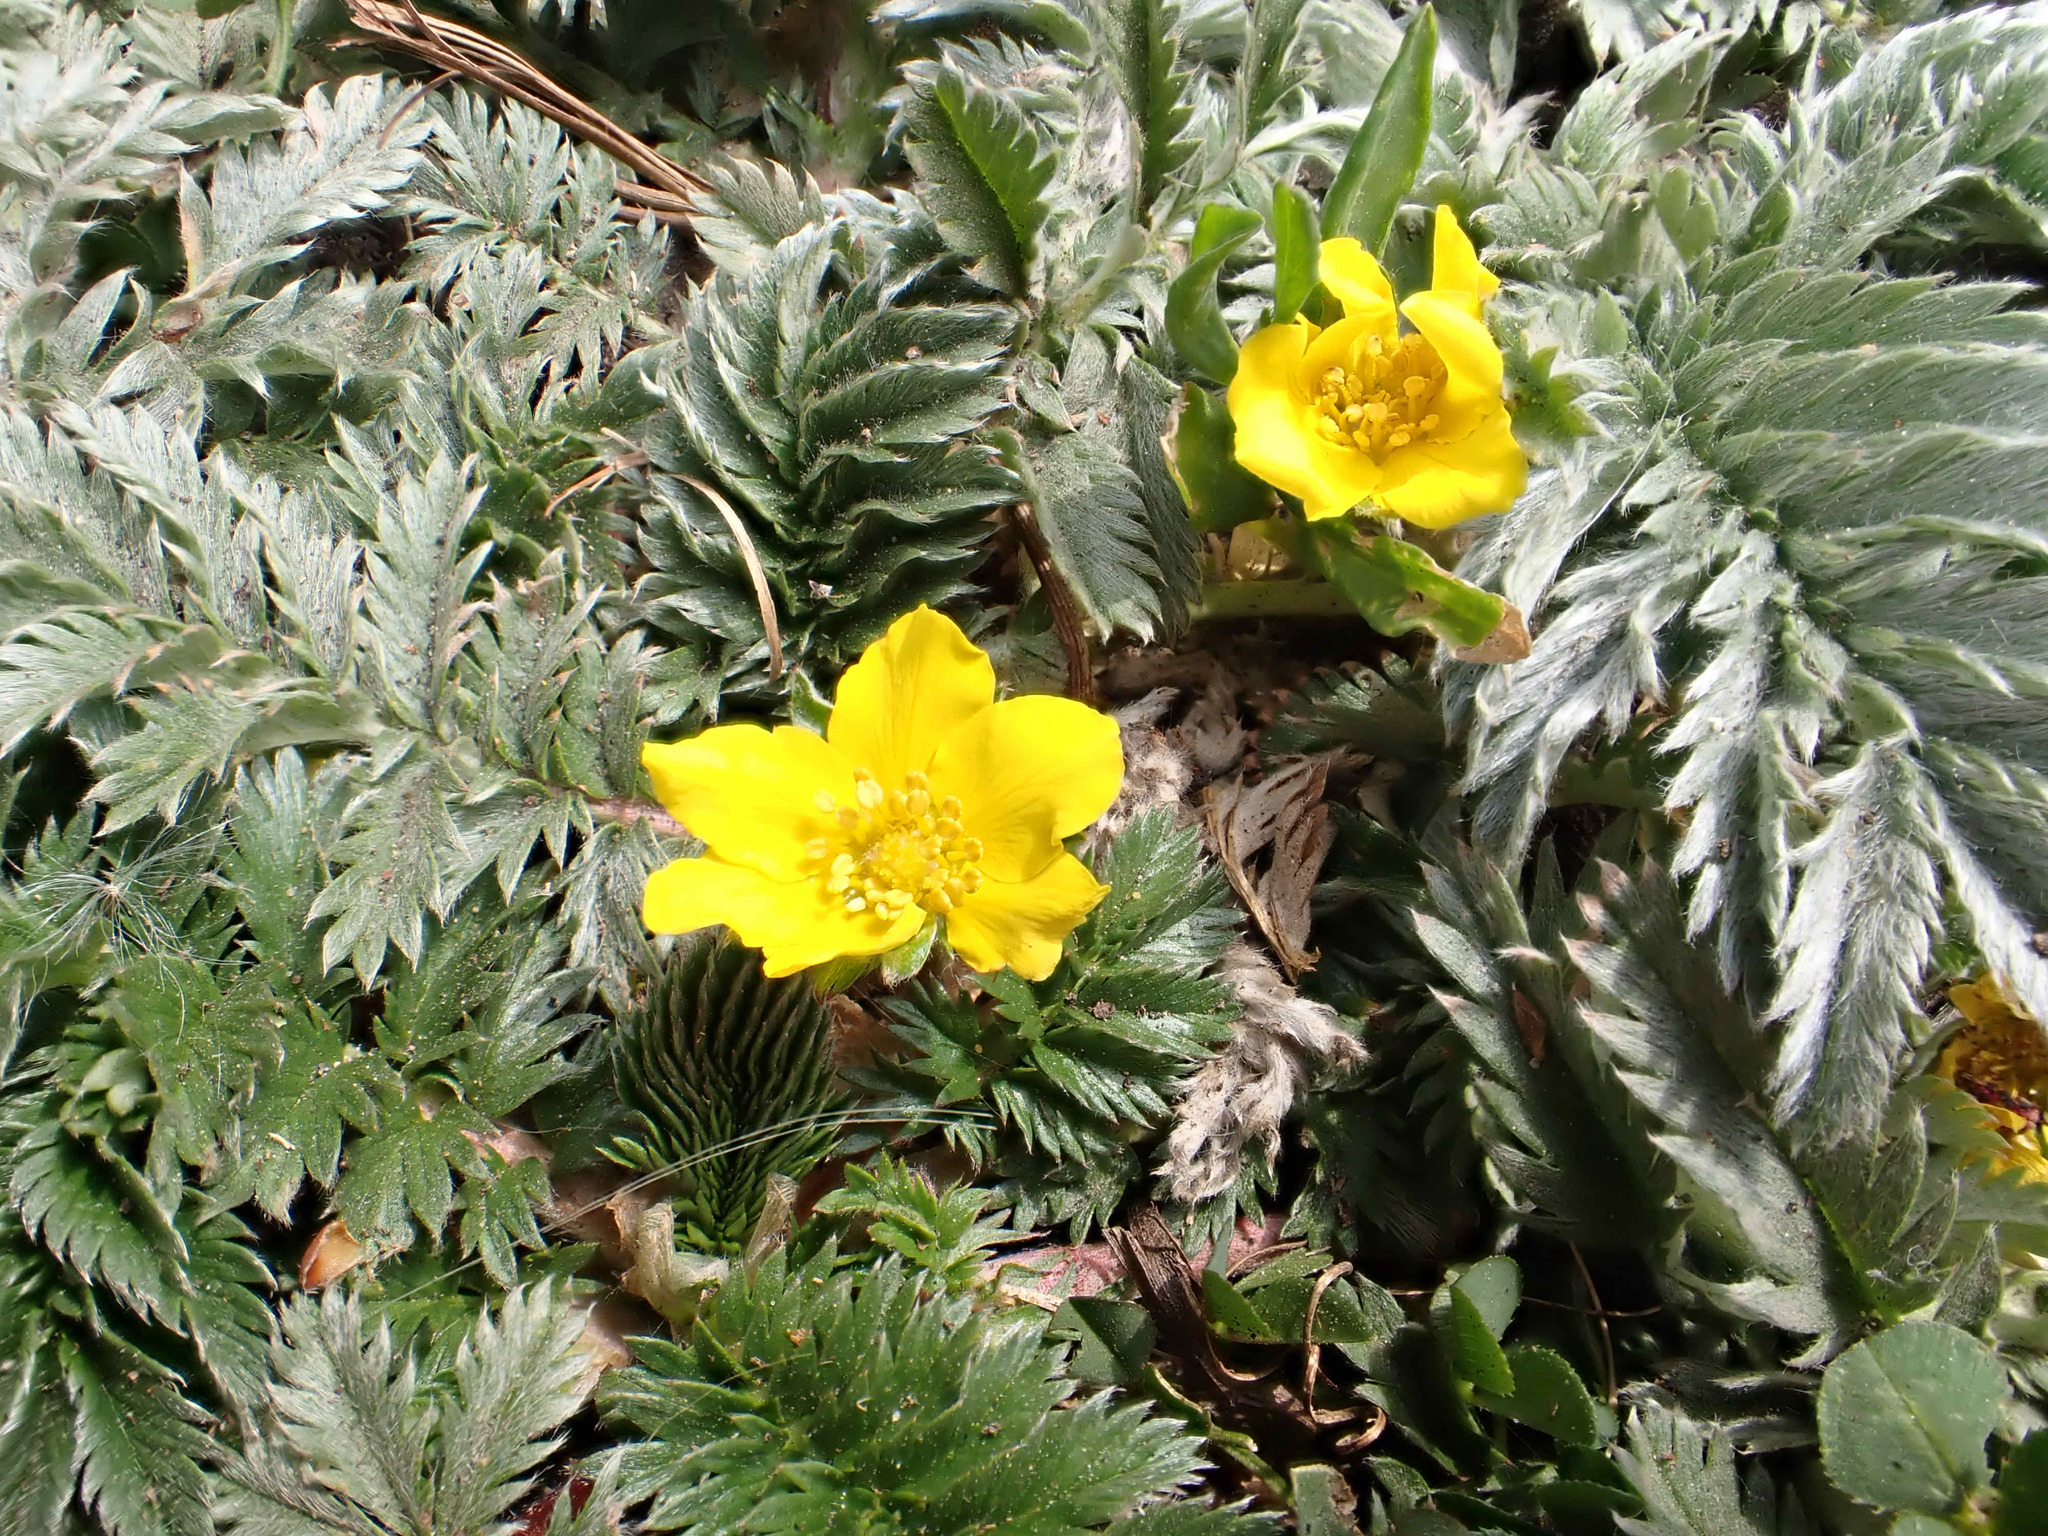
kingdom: Plantae
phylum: Tracheophyta
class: Magnoliopsida
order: Rosales
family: Rosaceae
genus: Argentina
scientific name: Argentina anserina
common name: Common silverweed
